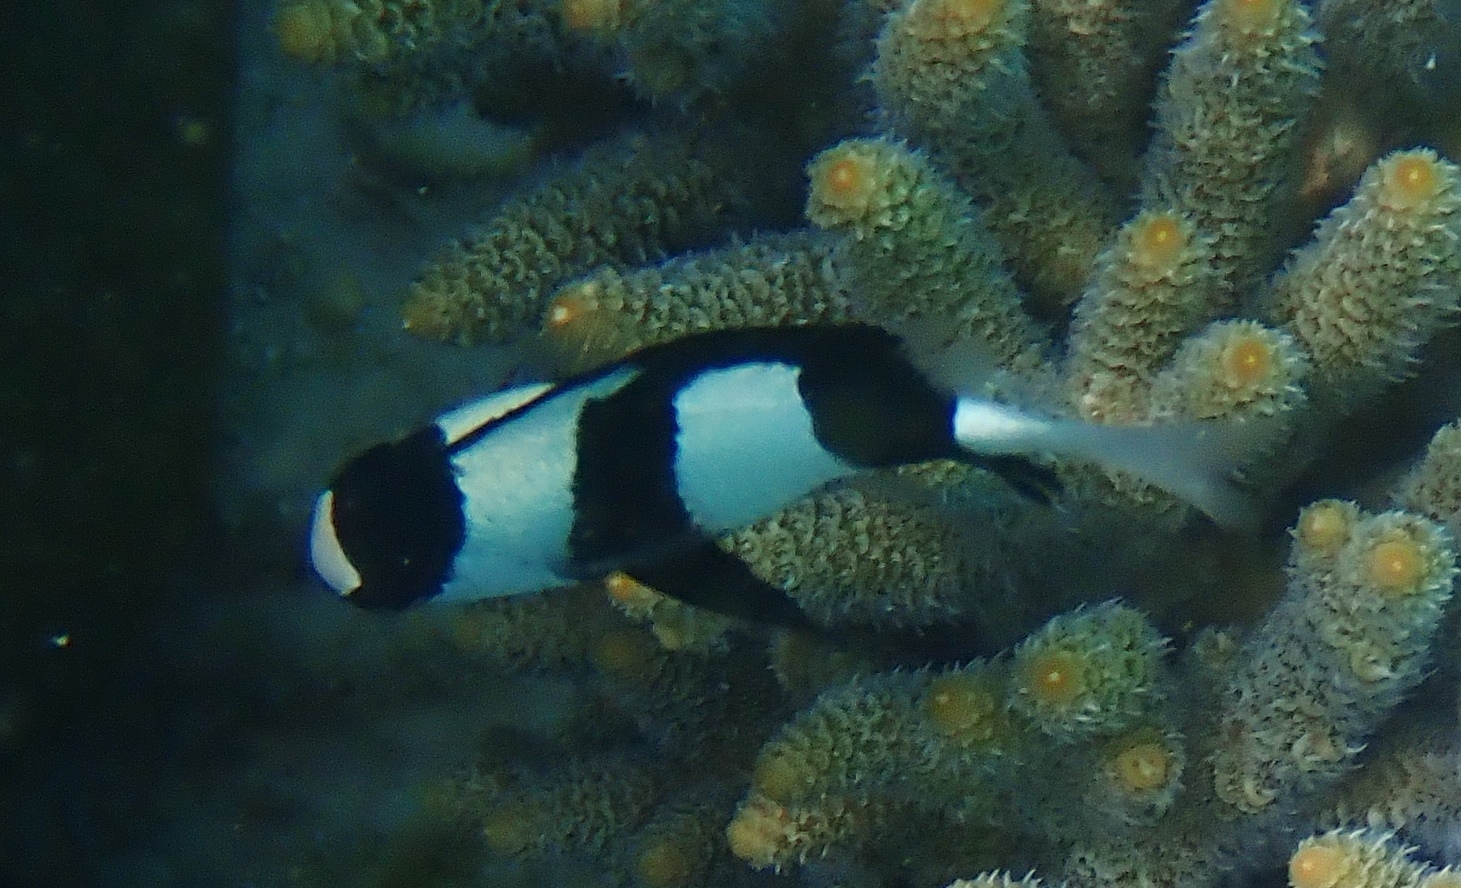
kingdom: Animalia
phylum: Chordata
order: Perciformes
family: Pomacentridae
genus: Dascyllus
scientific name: Dascyllus aruanus
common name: Humbug dascyllus
